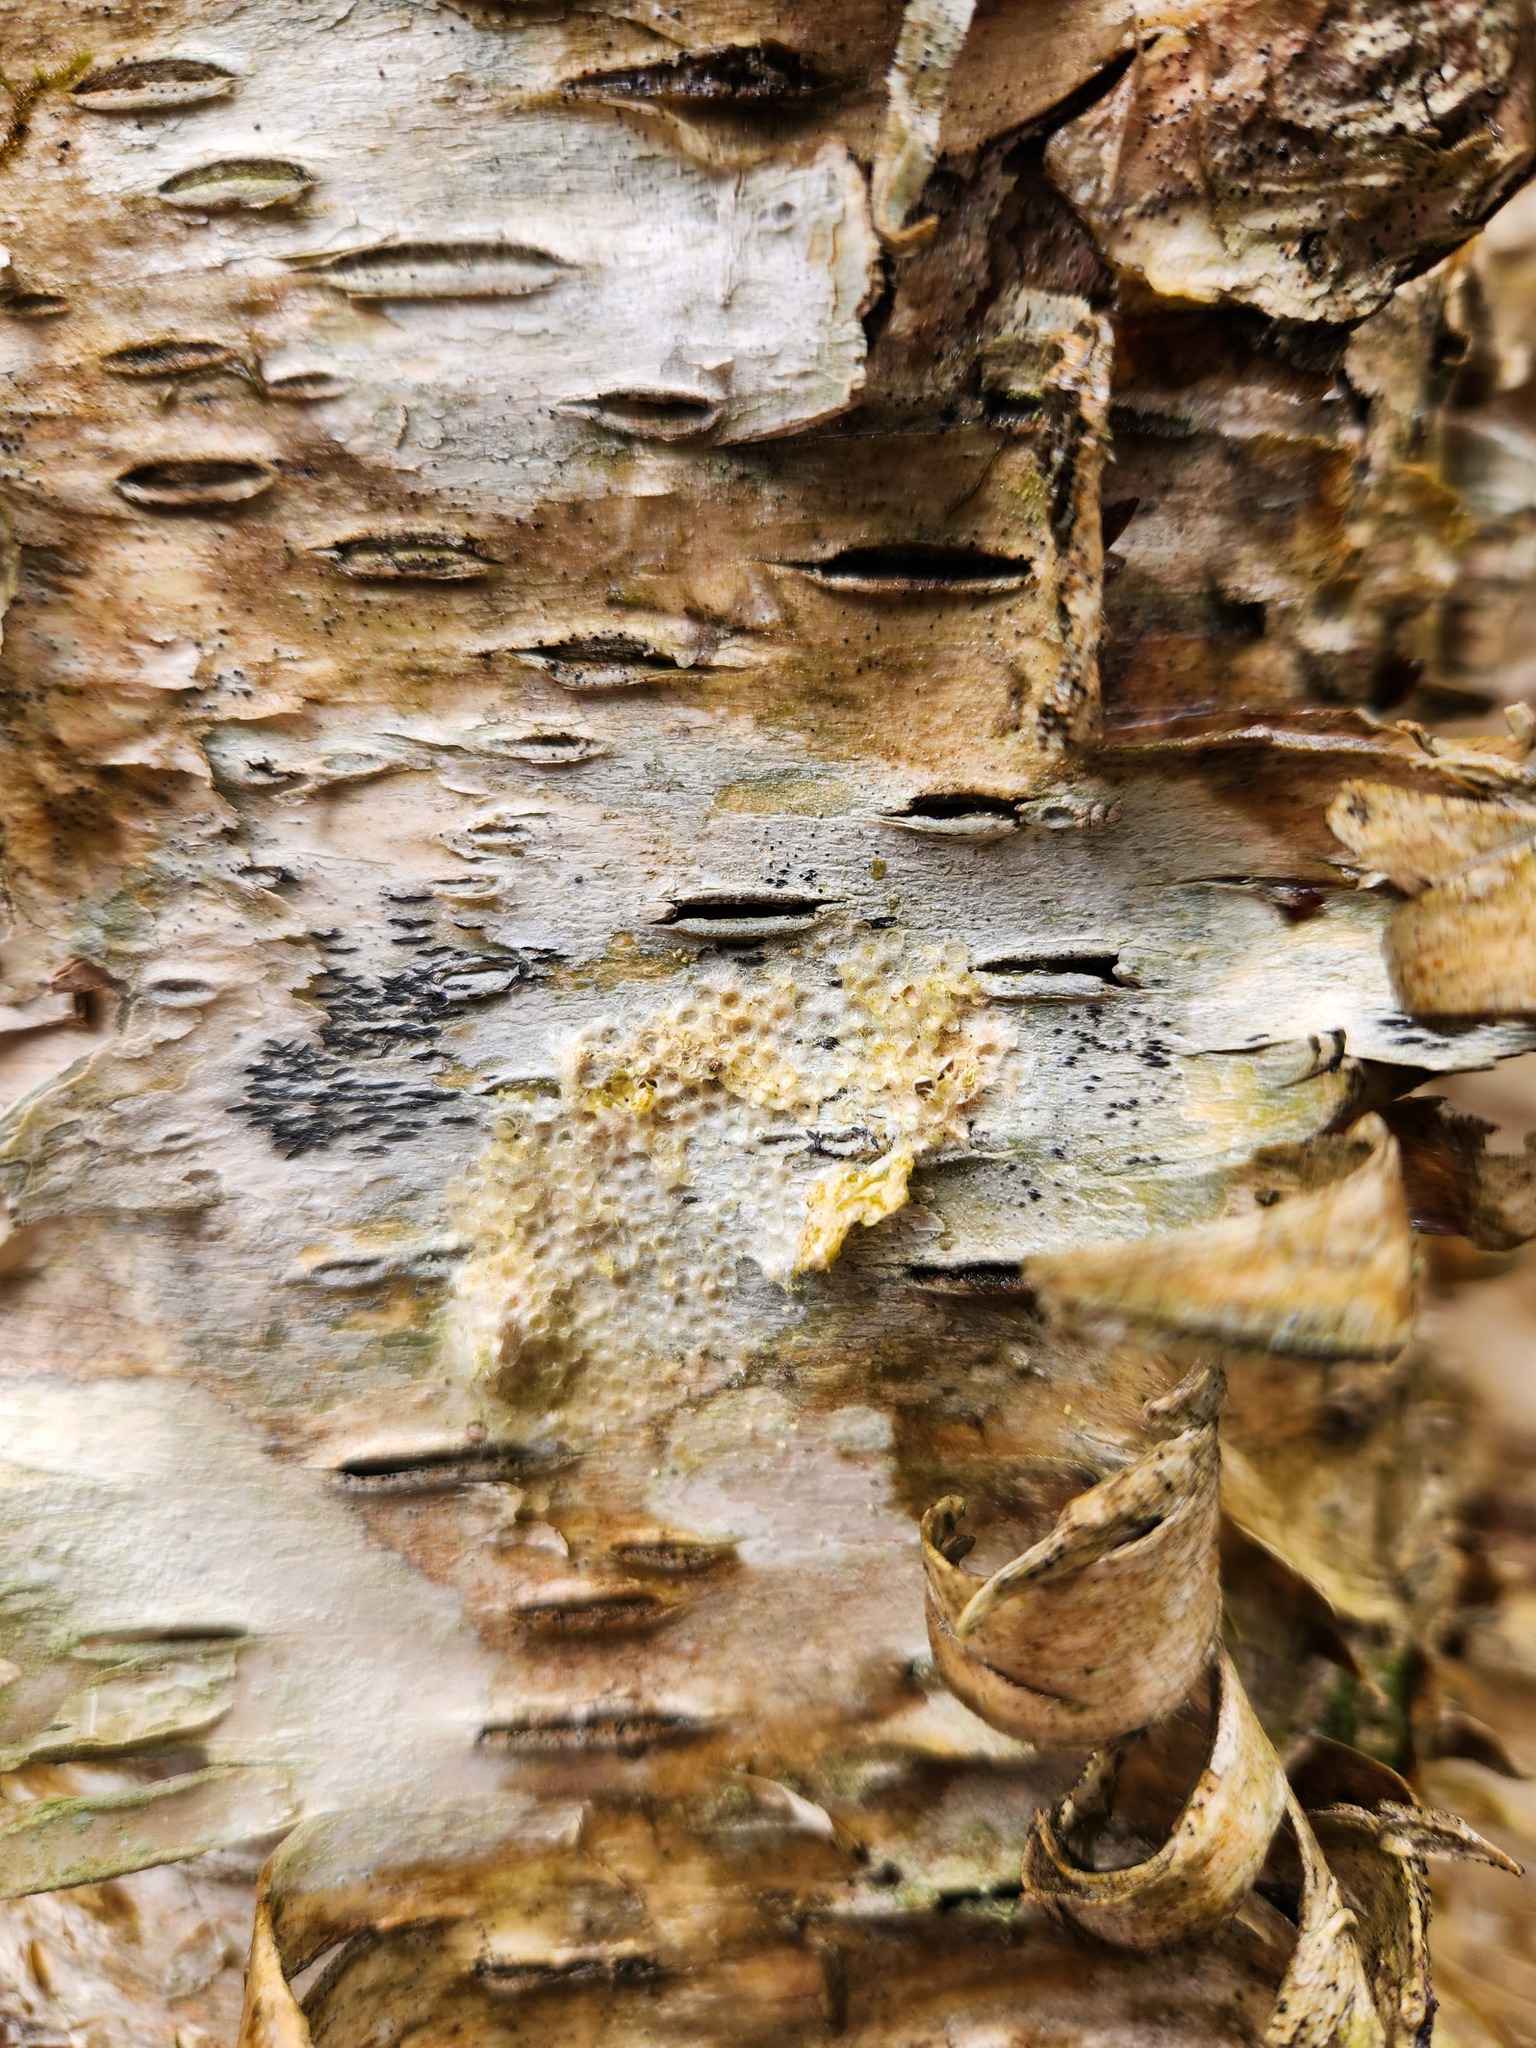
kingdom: Animalia
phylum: Arthropoda
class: Insecta
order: Lepidoptera
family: Erebidae
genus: Lymantria
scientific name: Lymantria dispar
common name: Gypsy moth
